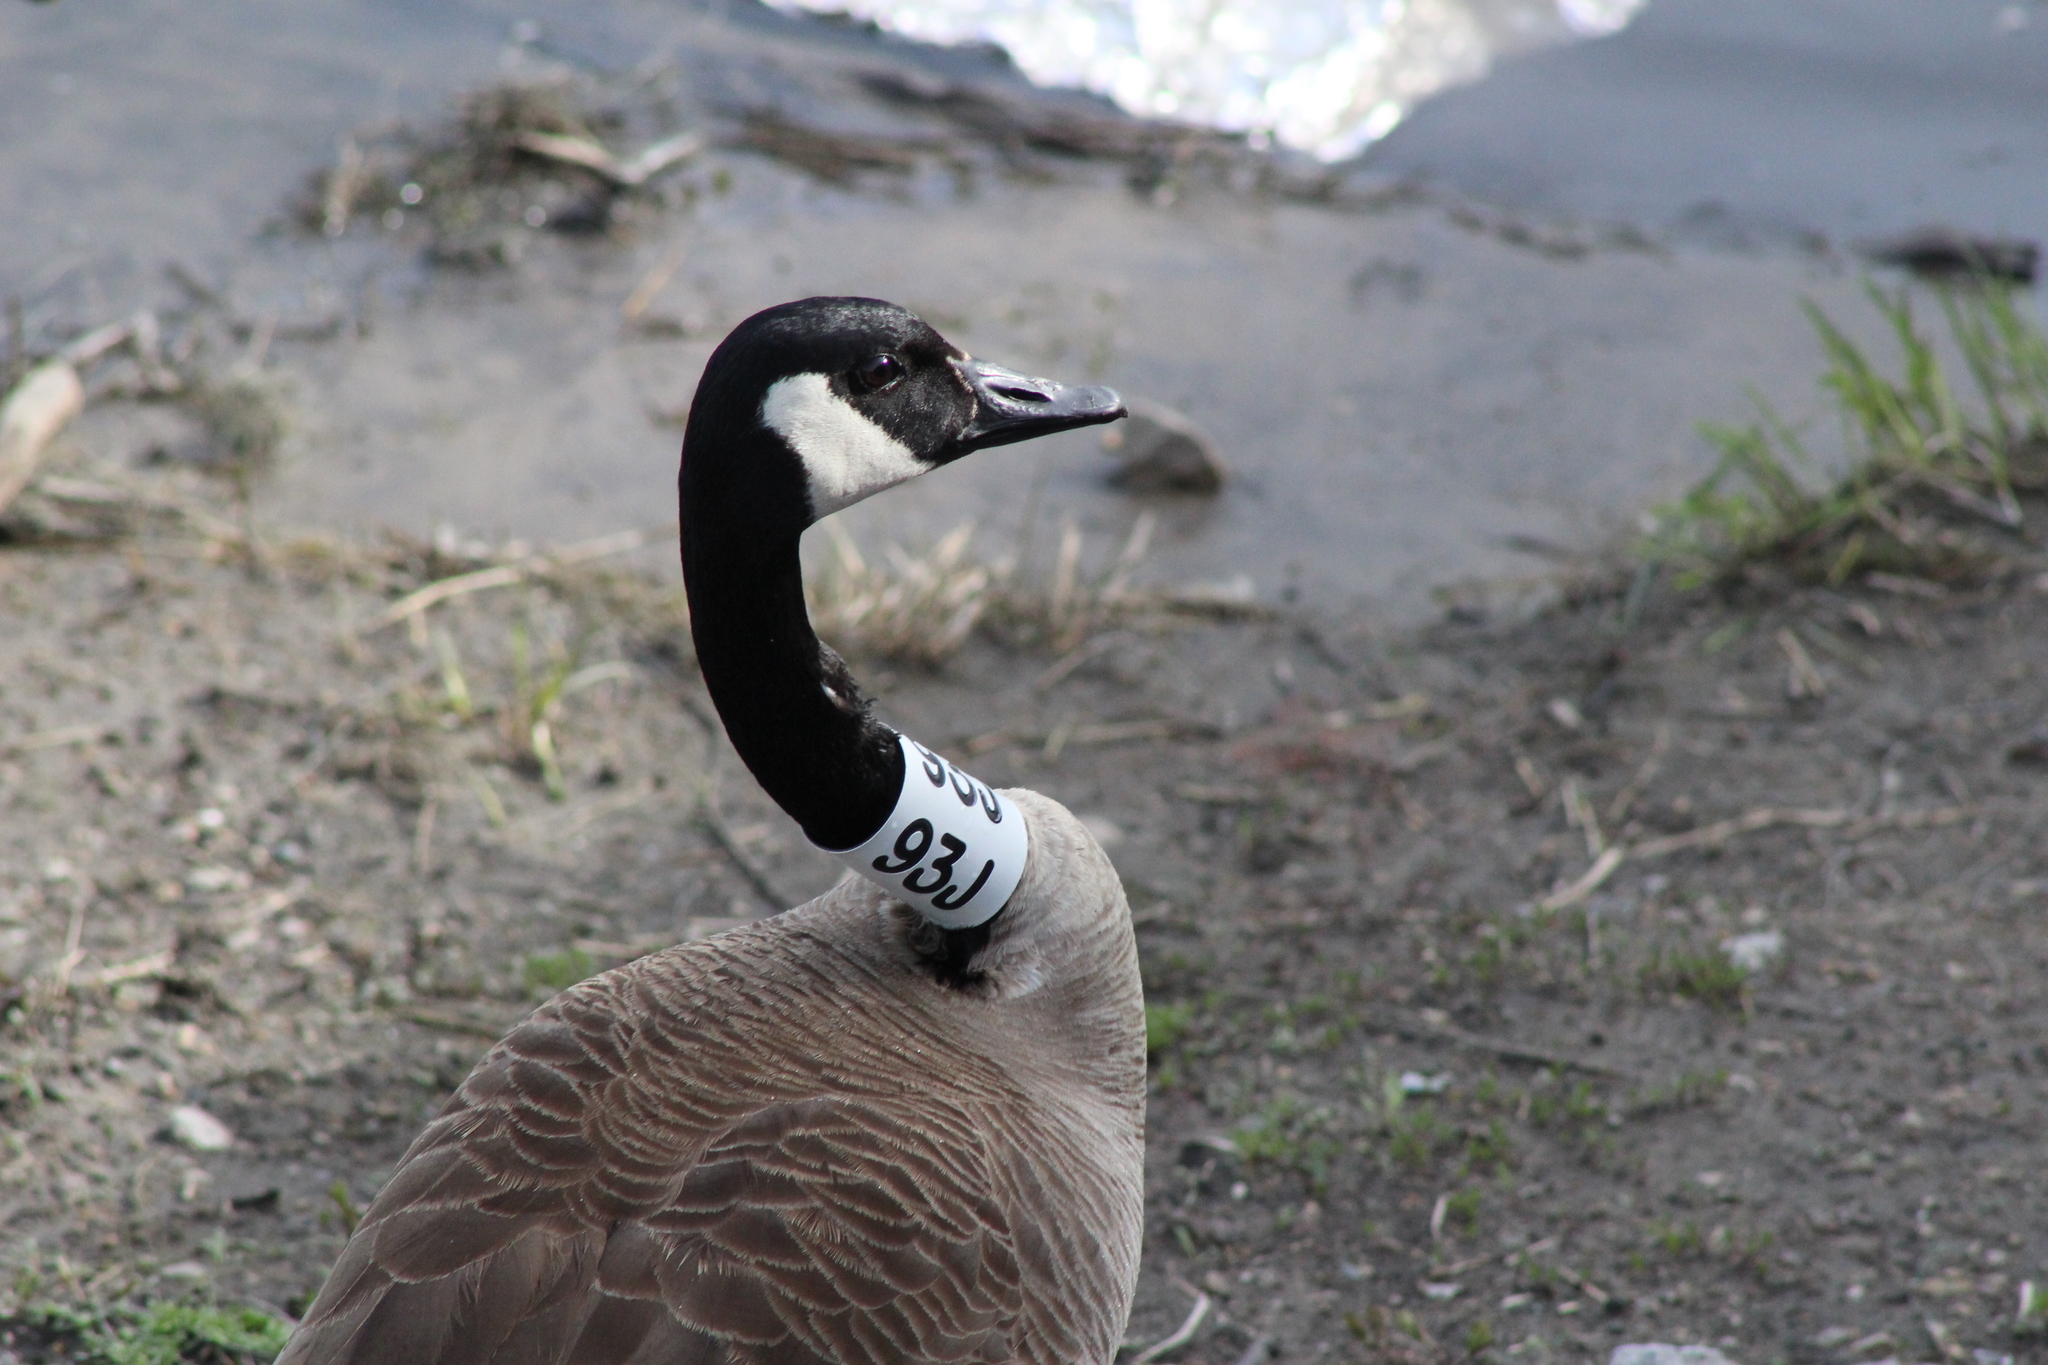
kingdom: Animalia
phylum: Chordata
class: Aves
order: Anseriformes
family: Anatidae
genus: Branta
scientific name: Branta canadensis
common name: Canada goose
